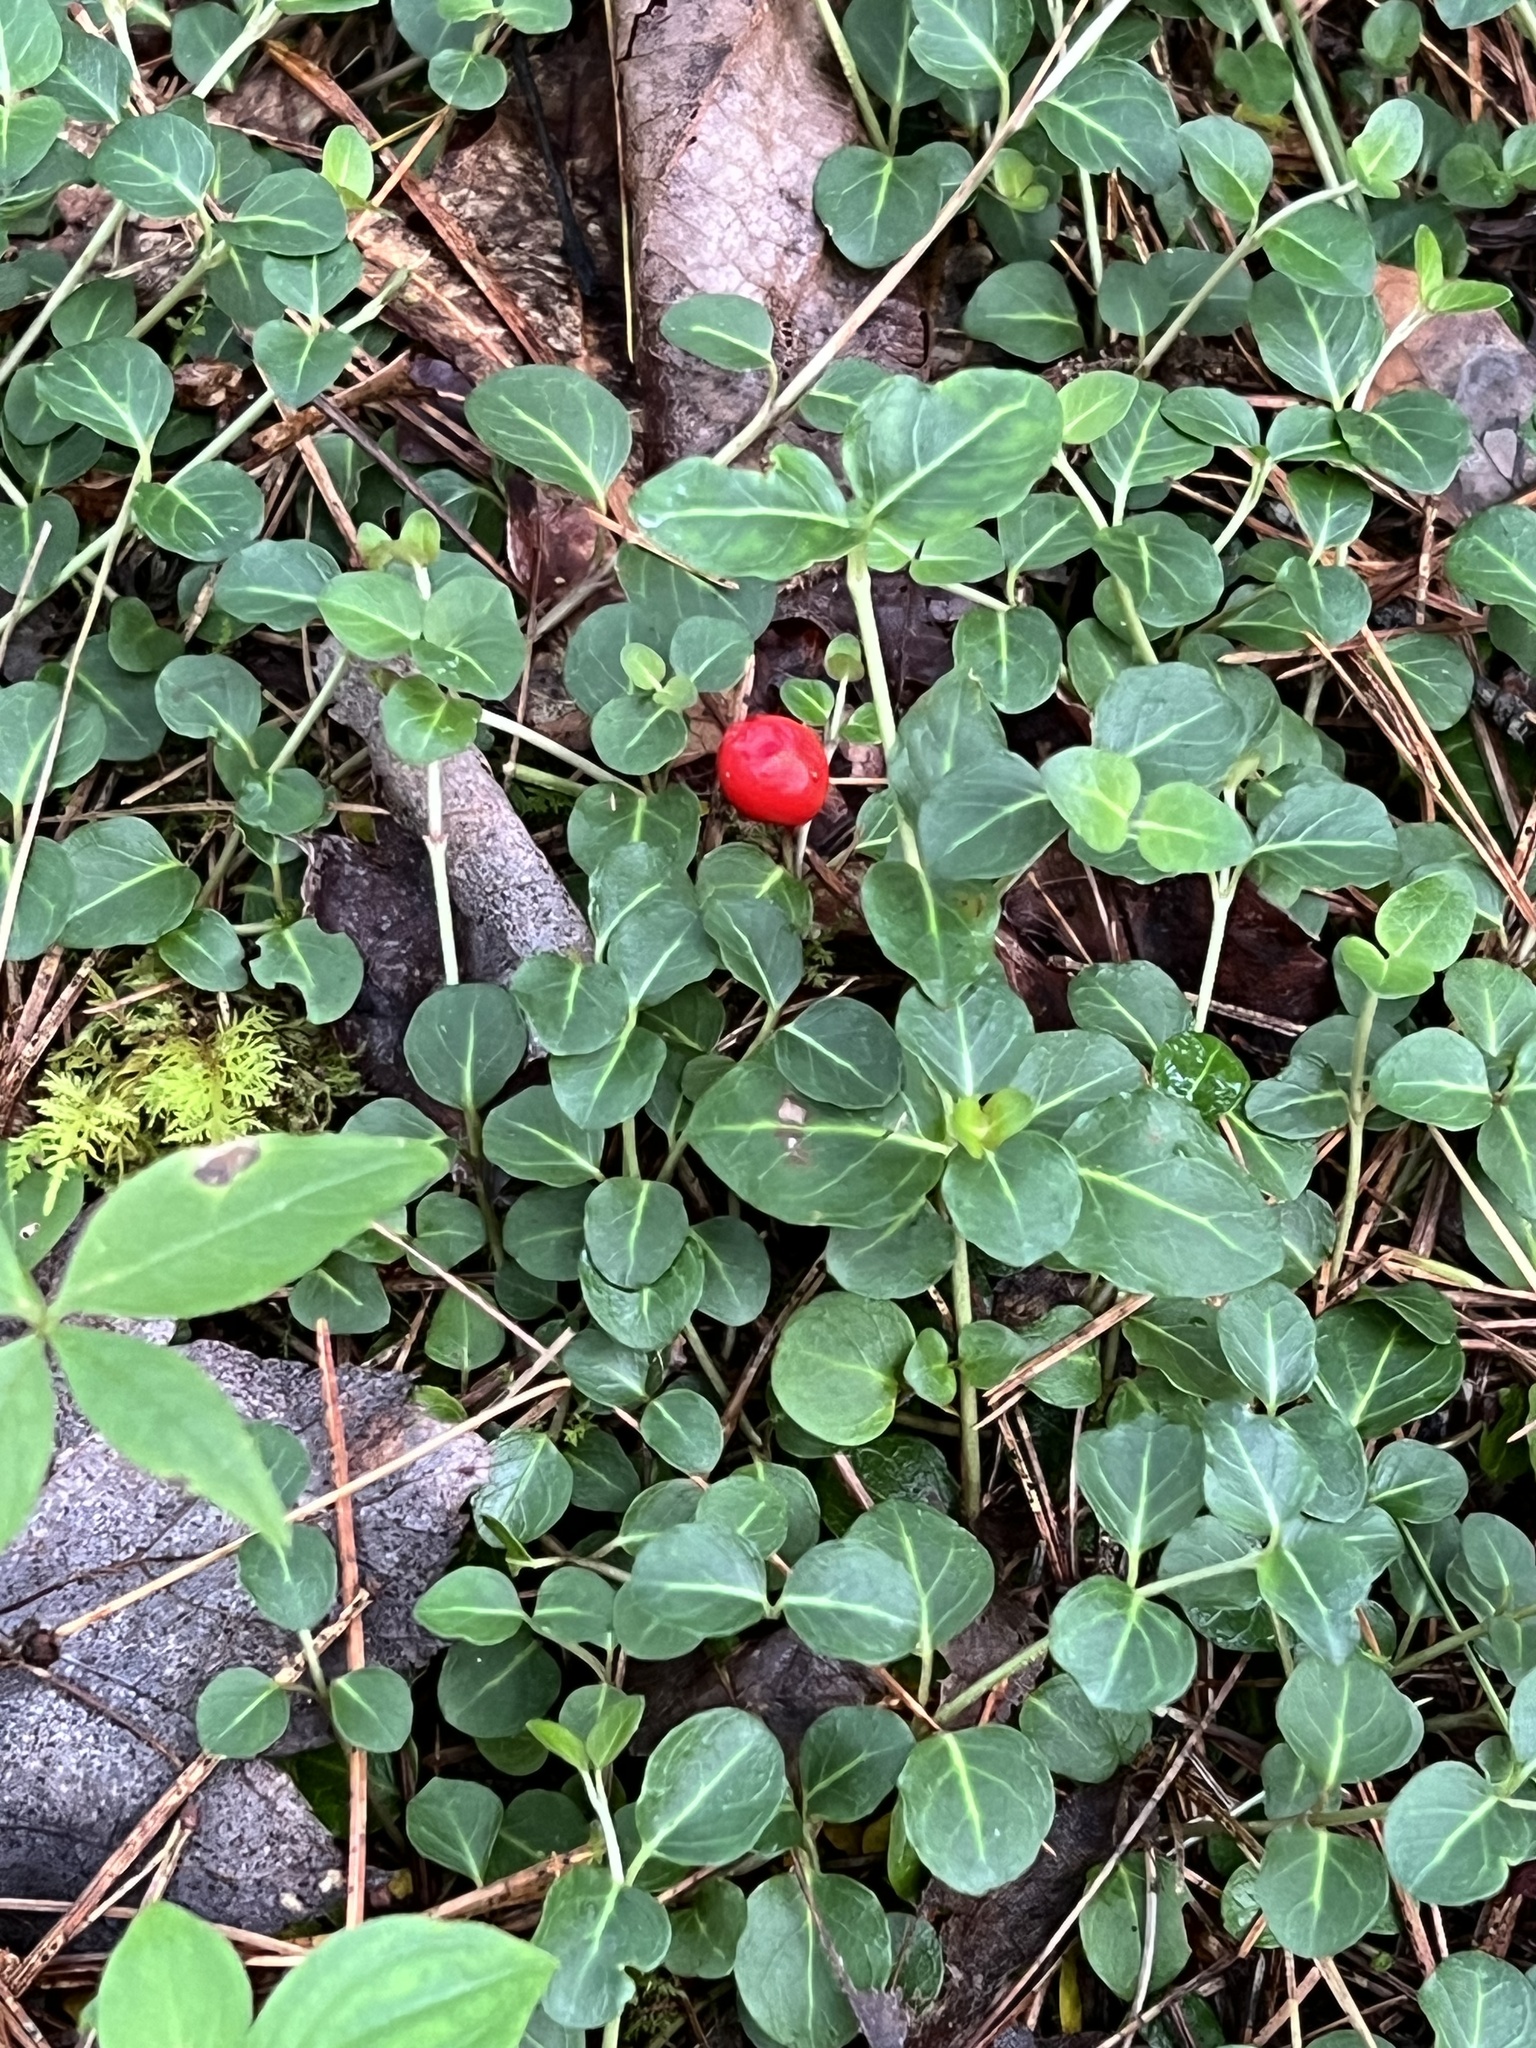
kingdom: Plantae
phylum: Tracheophyta
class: Magnoliopsida
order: Gentianales
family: Rubiaceae
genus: Mitchella
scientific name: Mitchella repens
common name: Partridge-berry
